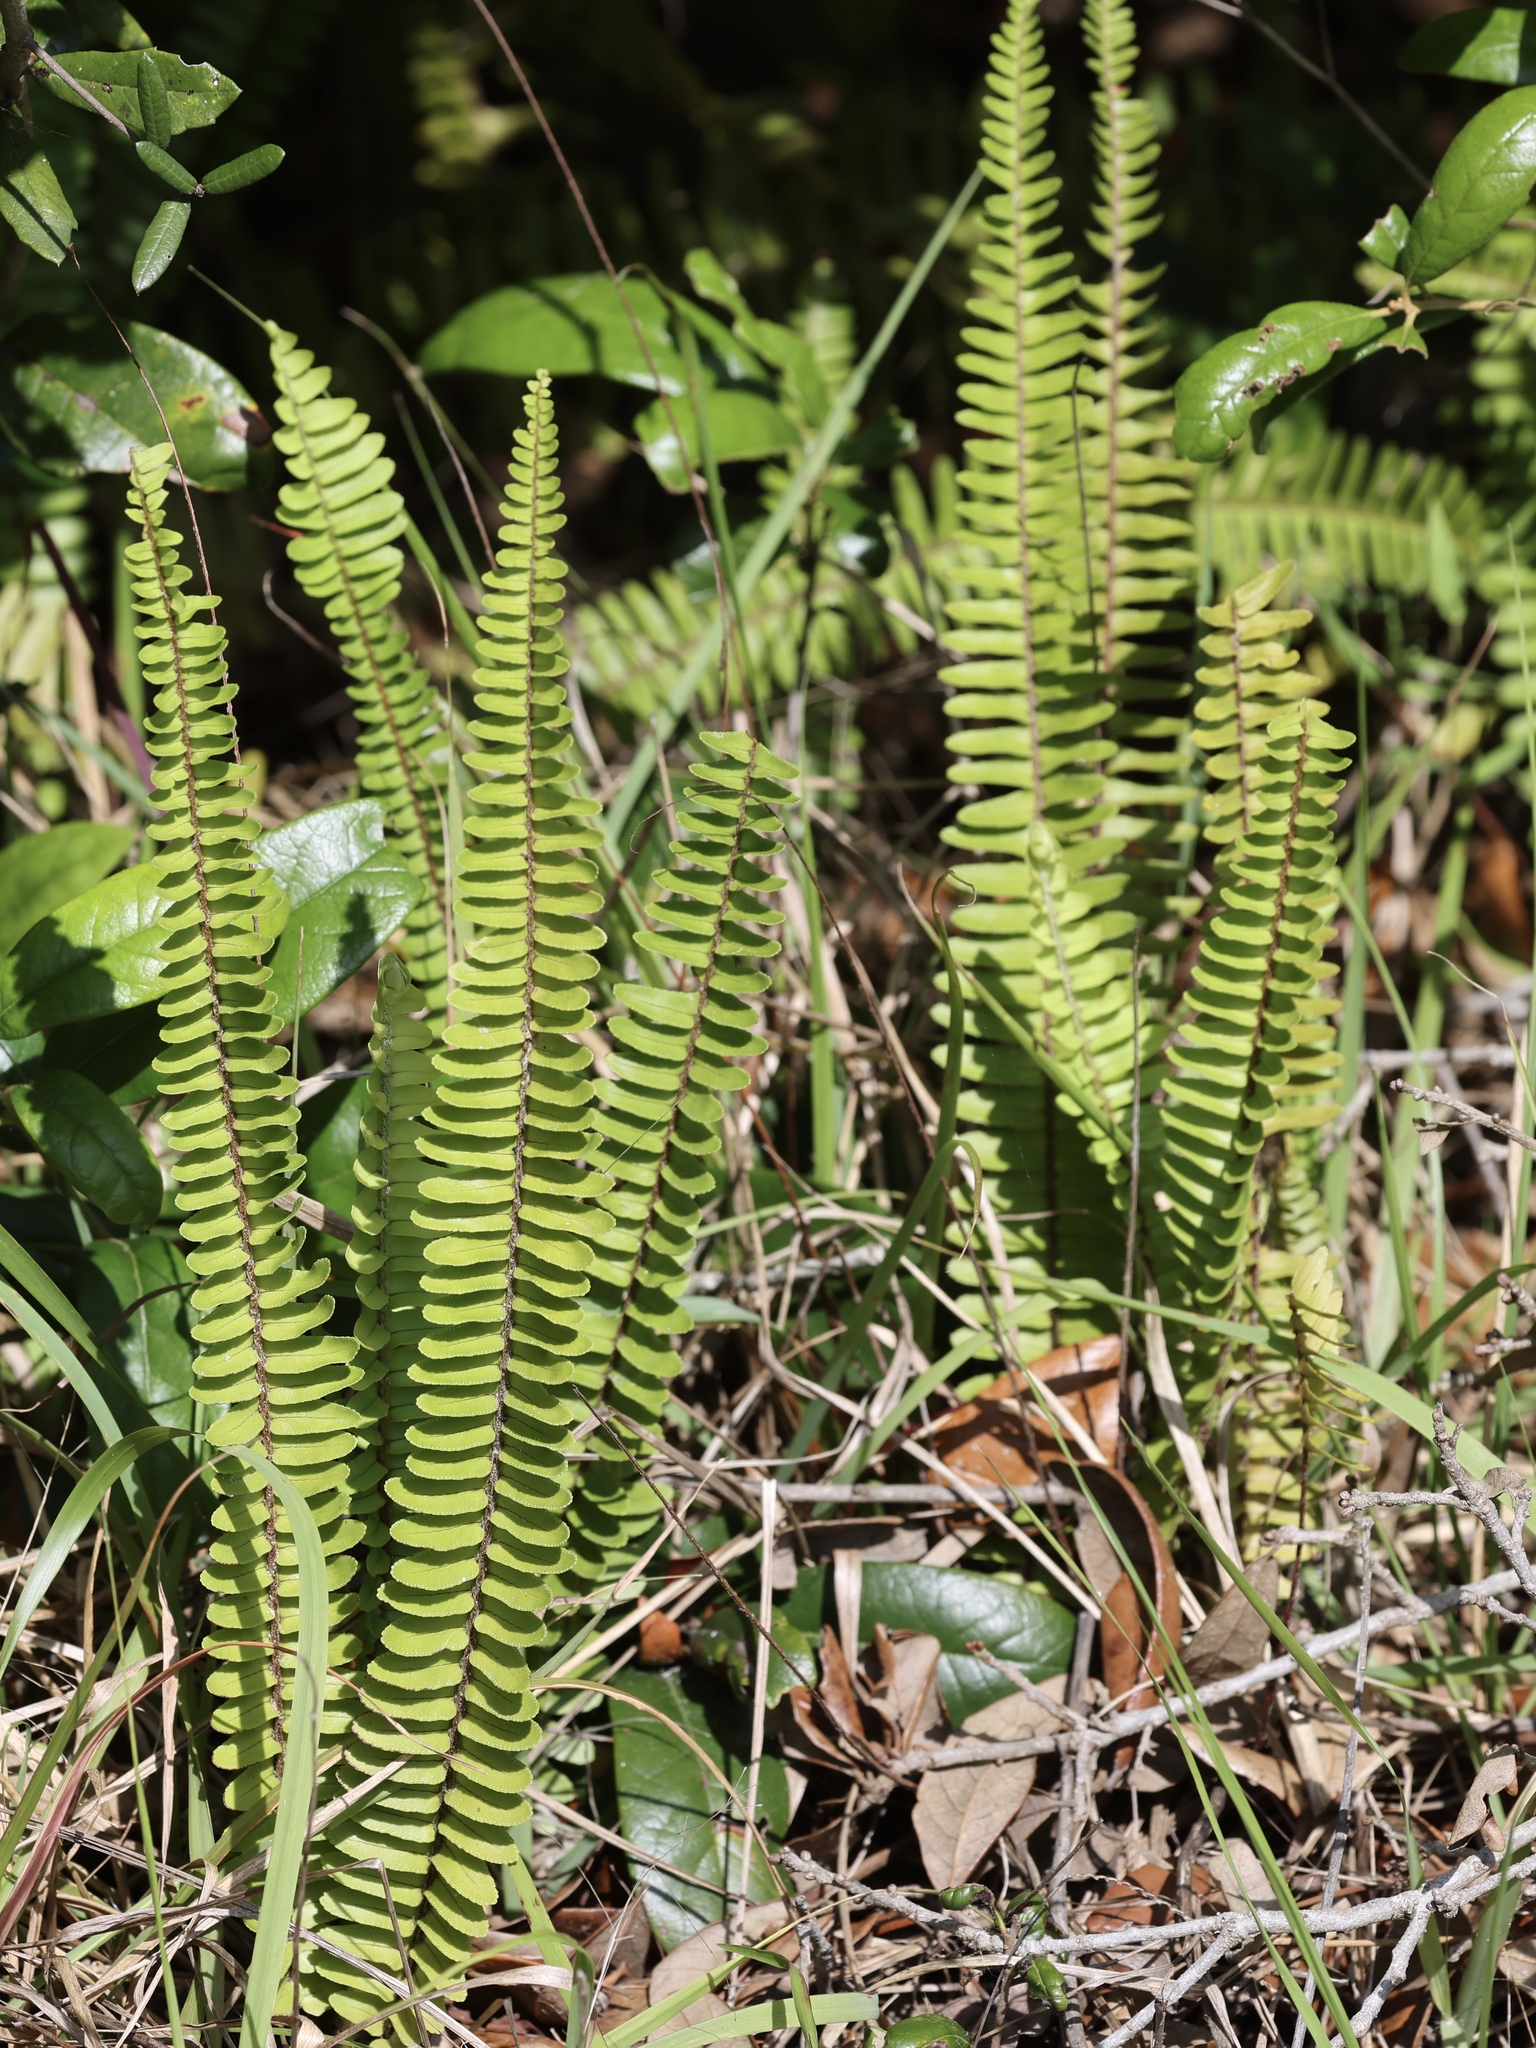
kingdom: Plantae
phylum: Tracheophyta
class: Polypodiopsida
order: Polypodiales
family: Nephrolepidaceae
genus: Nephrolepis
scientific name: Nephrolepis cordifolia
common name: Narrow swordfern
